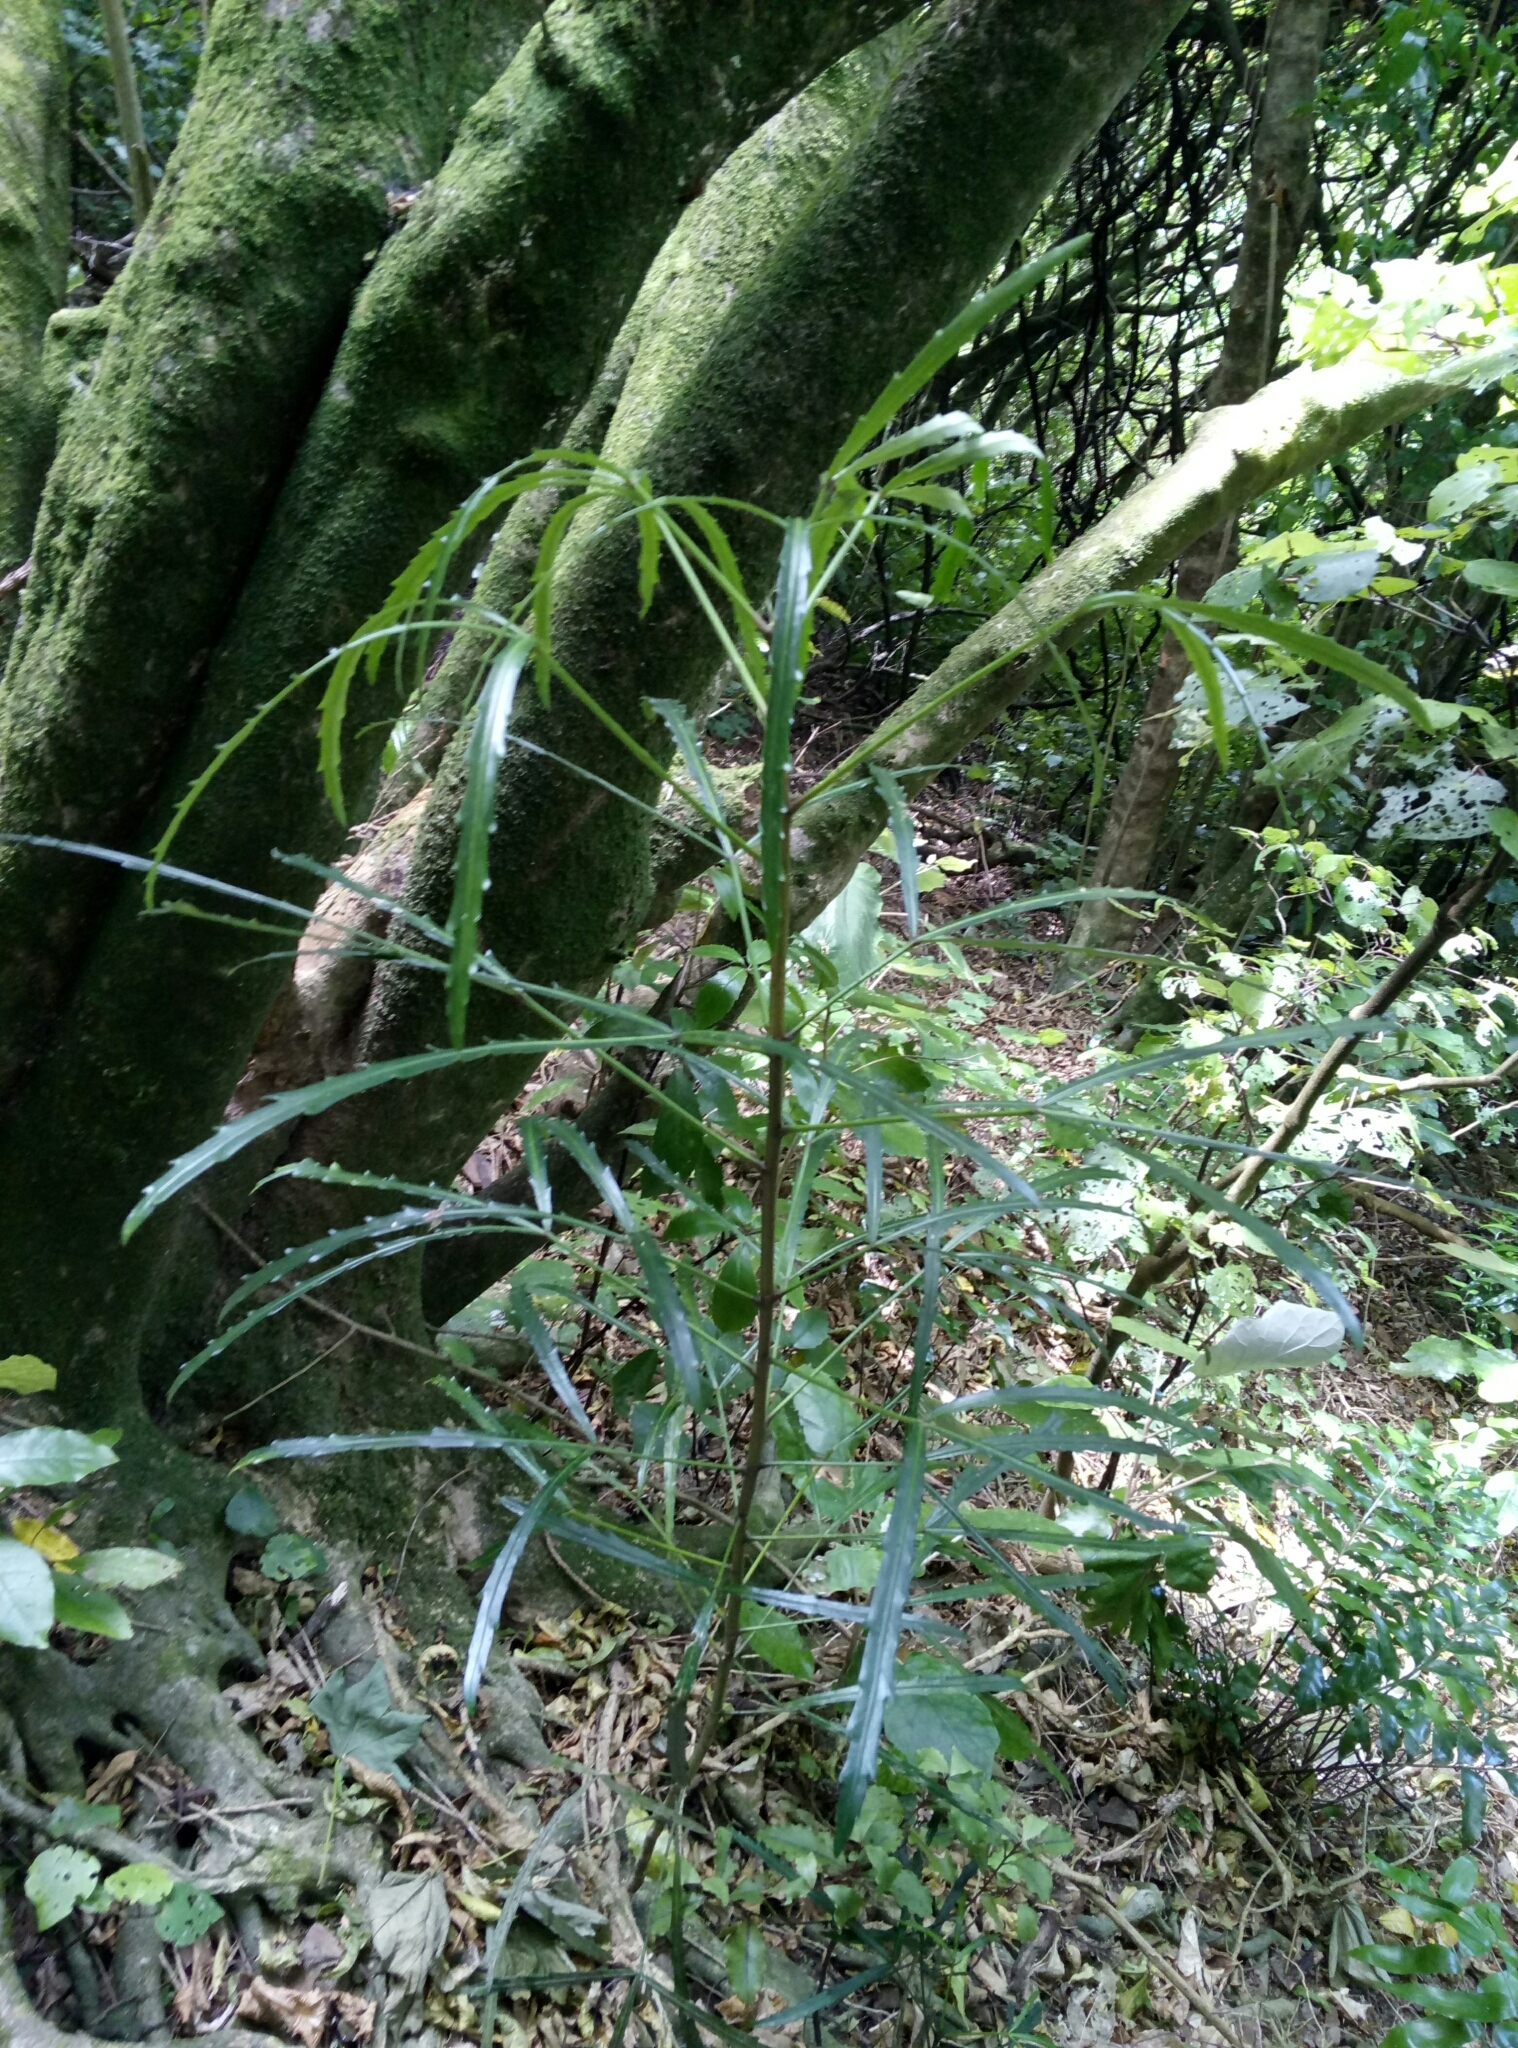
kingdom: Plantae
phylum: Tracheophyta
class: Magnoliopsida
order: Apiales
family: Araliaceae
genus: Pseudopanax
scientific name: Pseudopanax
